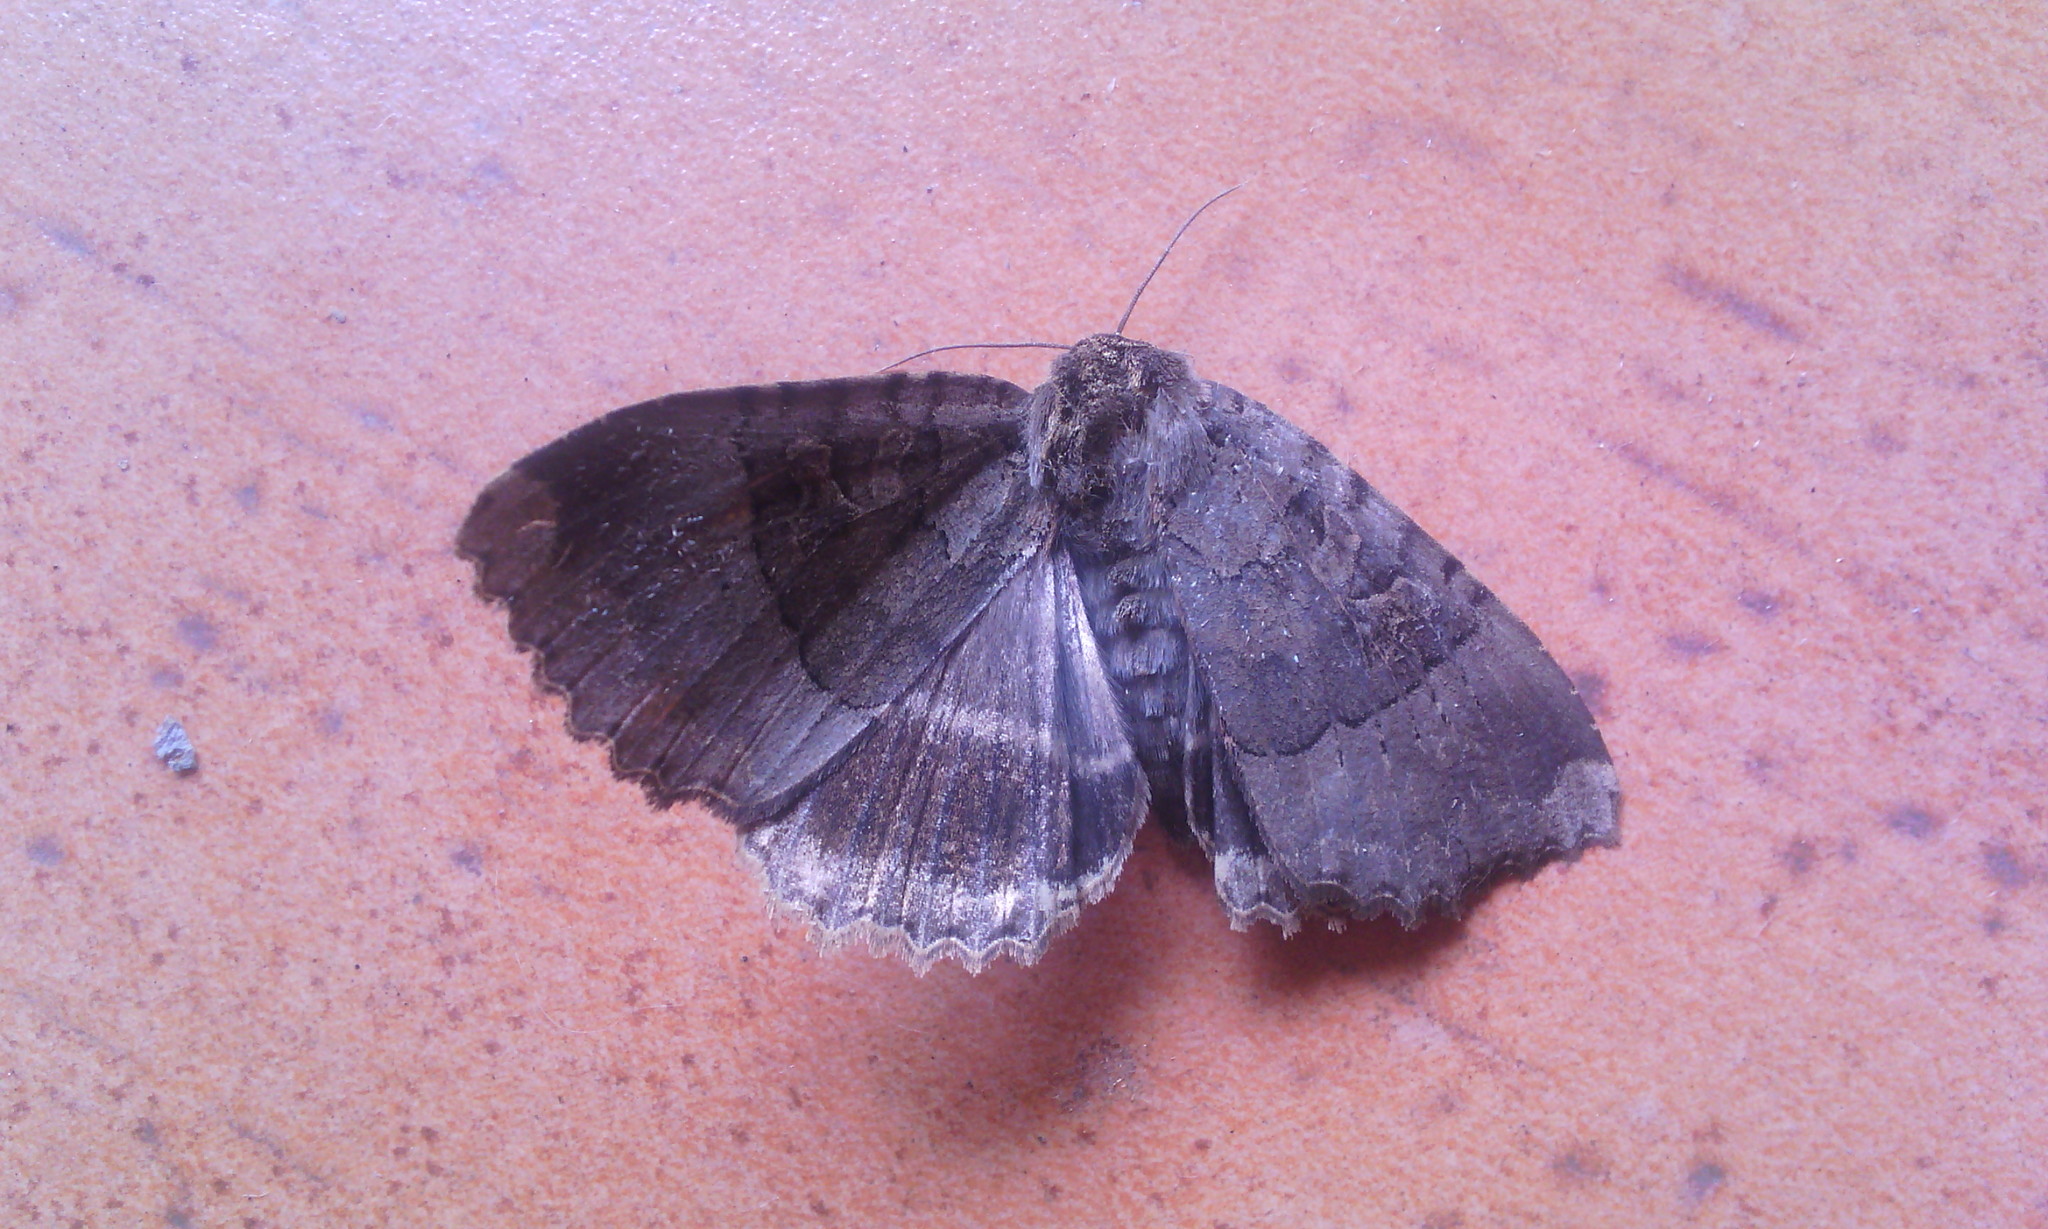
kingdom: Animalia
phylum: Arthropoda
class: Insecta
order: Lepidoptera
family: Noctuidae
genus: Mormo
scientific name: Mormo maura
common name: Old lady
